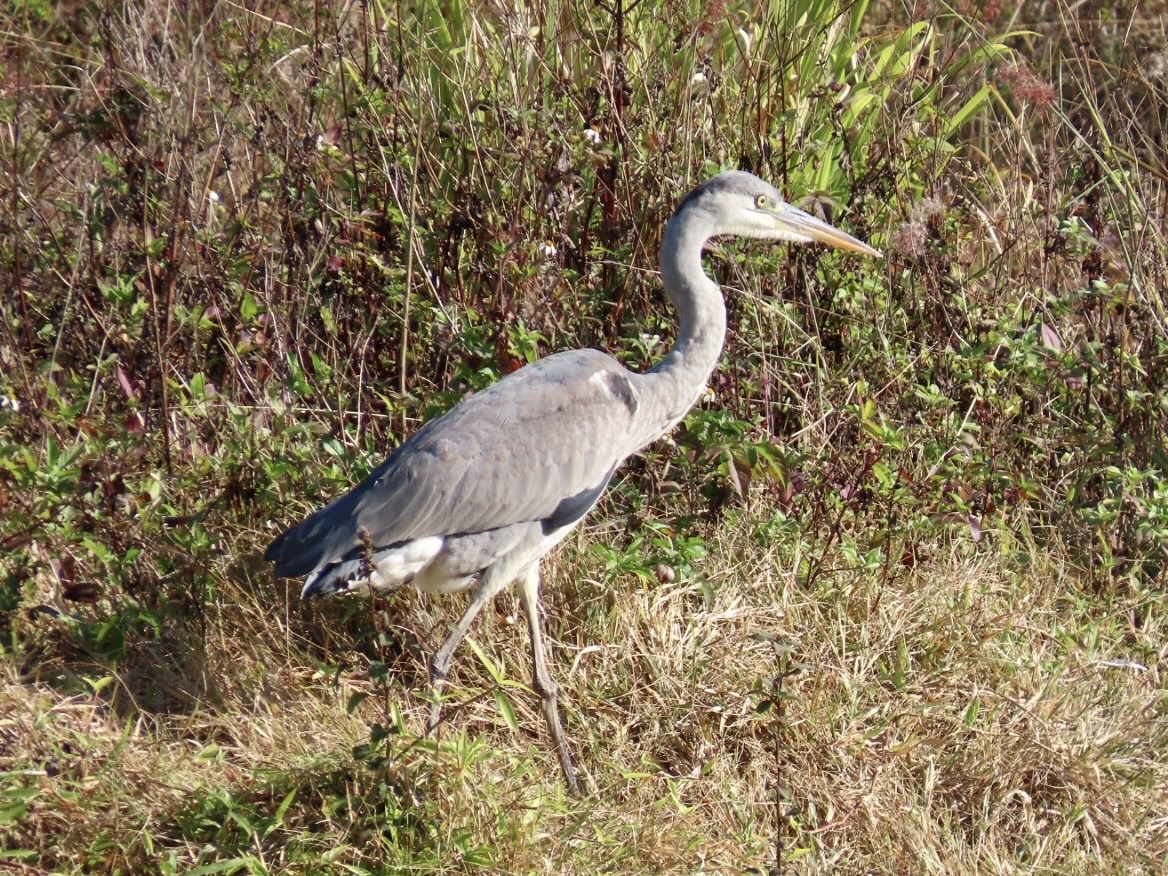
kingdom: Animalia
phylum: Chordata
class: Aves
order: Pelecaniformes
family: Ardeidae
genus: Ardea
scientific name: Ardea cinerea
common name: Grey heron
